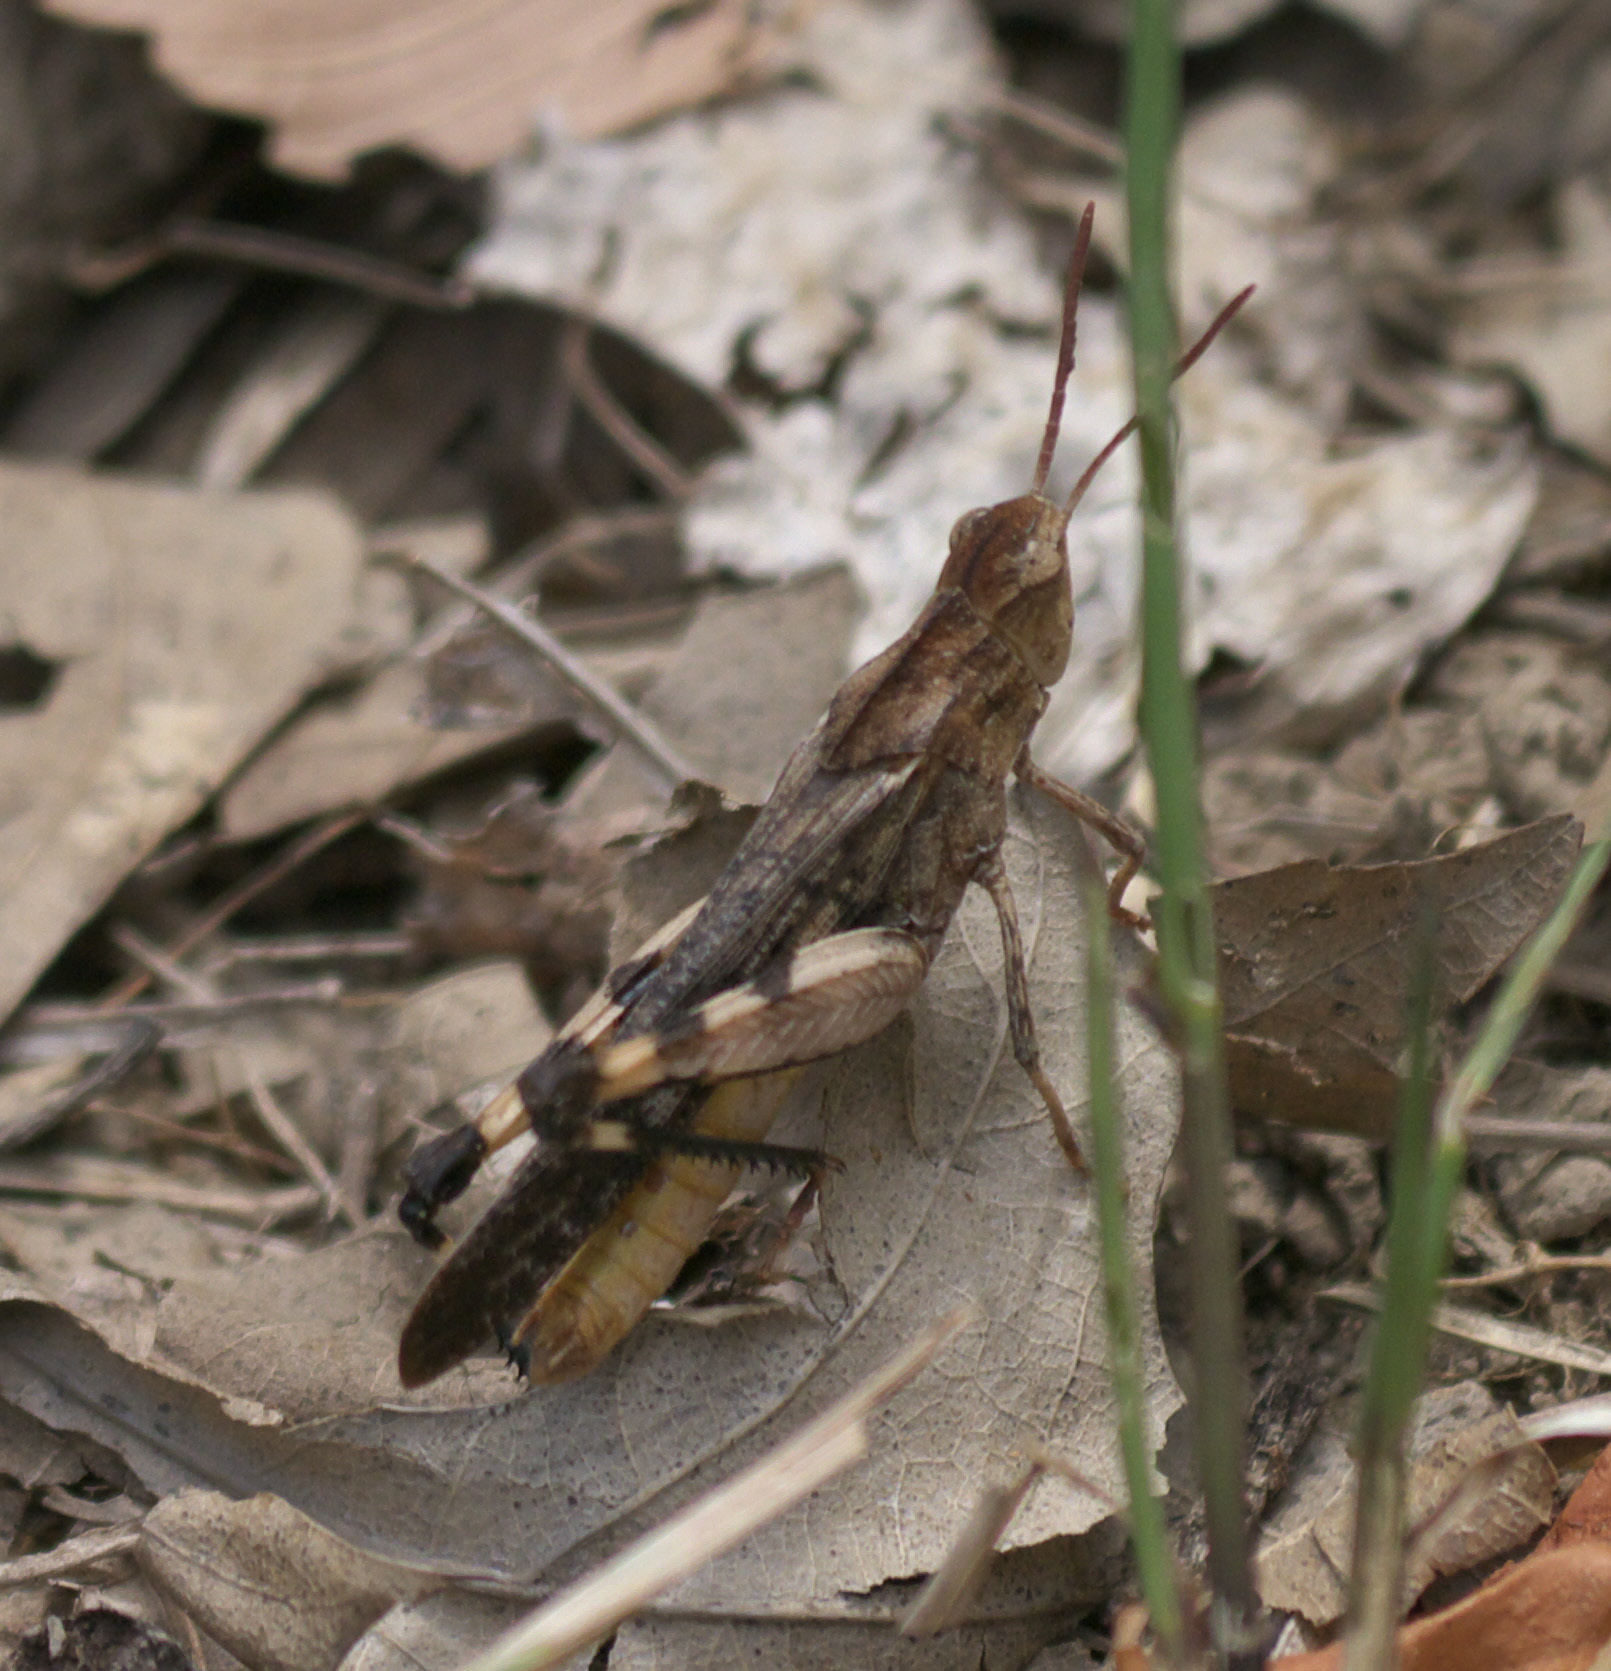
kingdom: Animalia
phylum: Arthropoda
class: Insecta
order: Orthoptera
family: Acrididae
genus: Chortophaga
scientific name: Chortophaga viridifasciata
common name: Green-striped grasshopper
